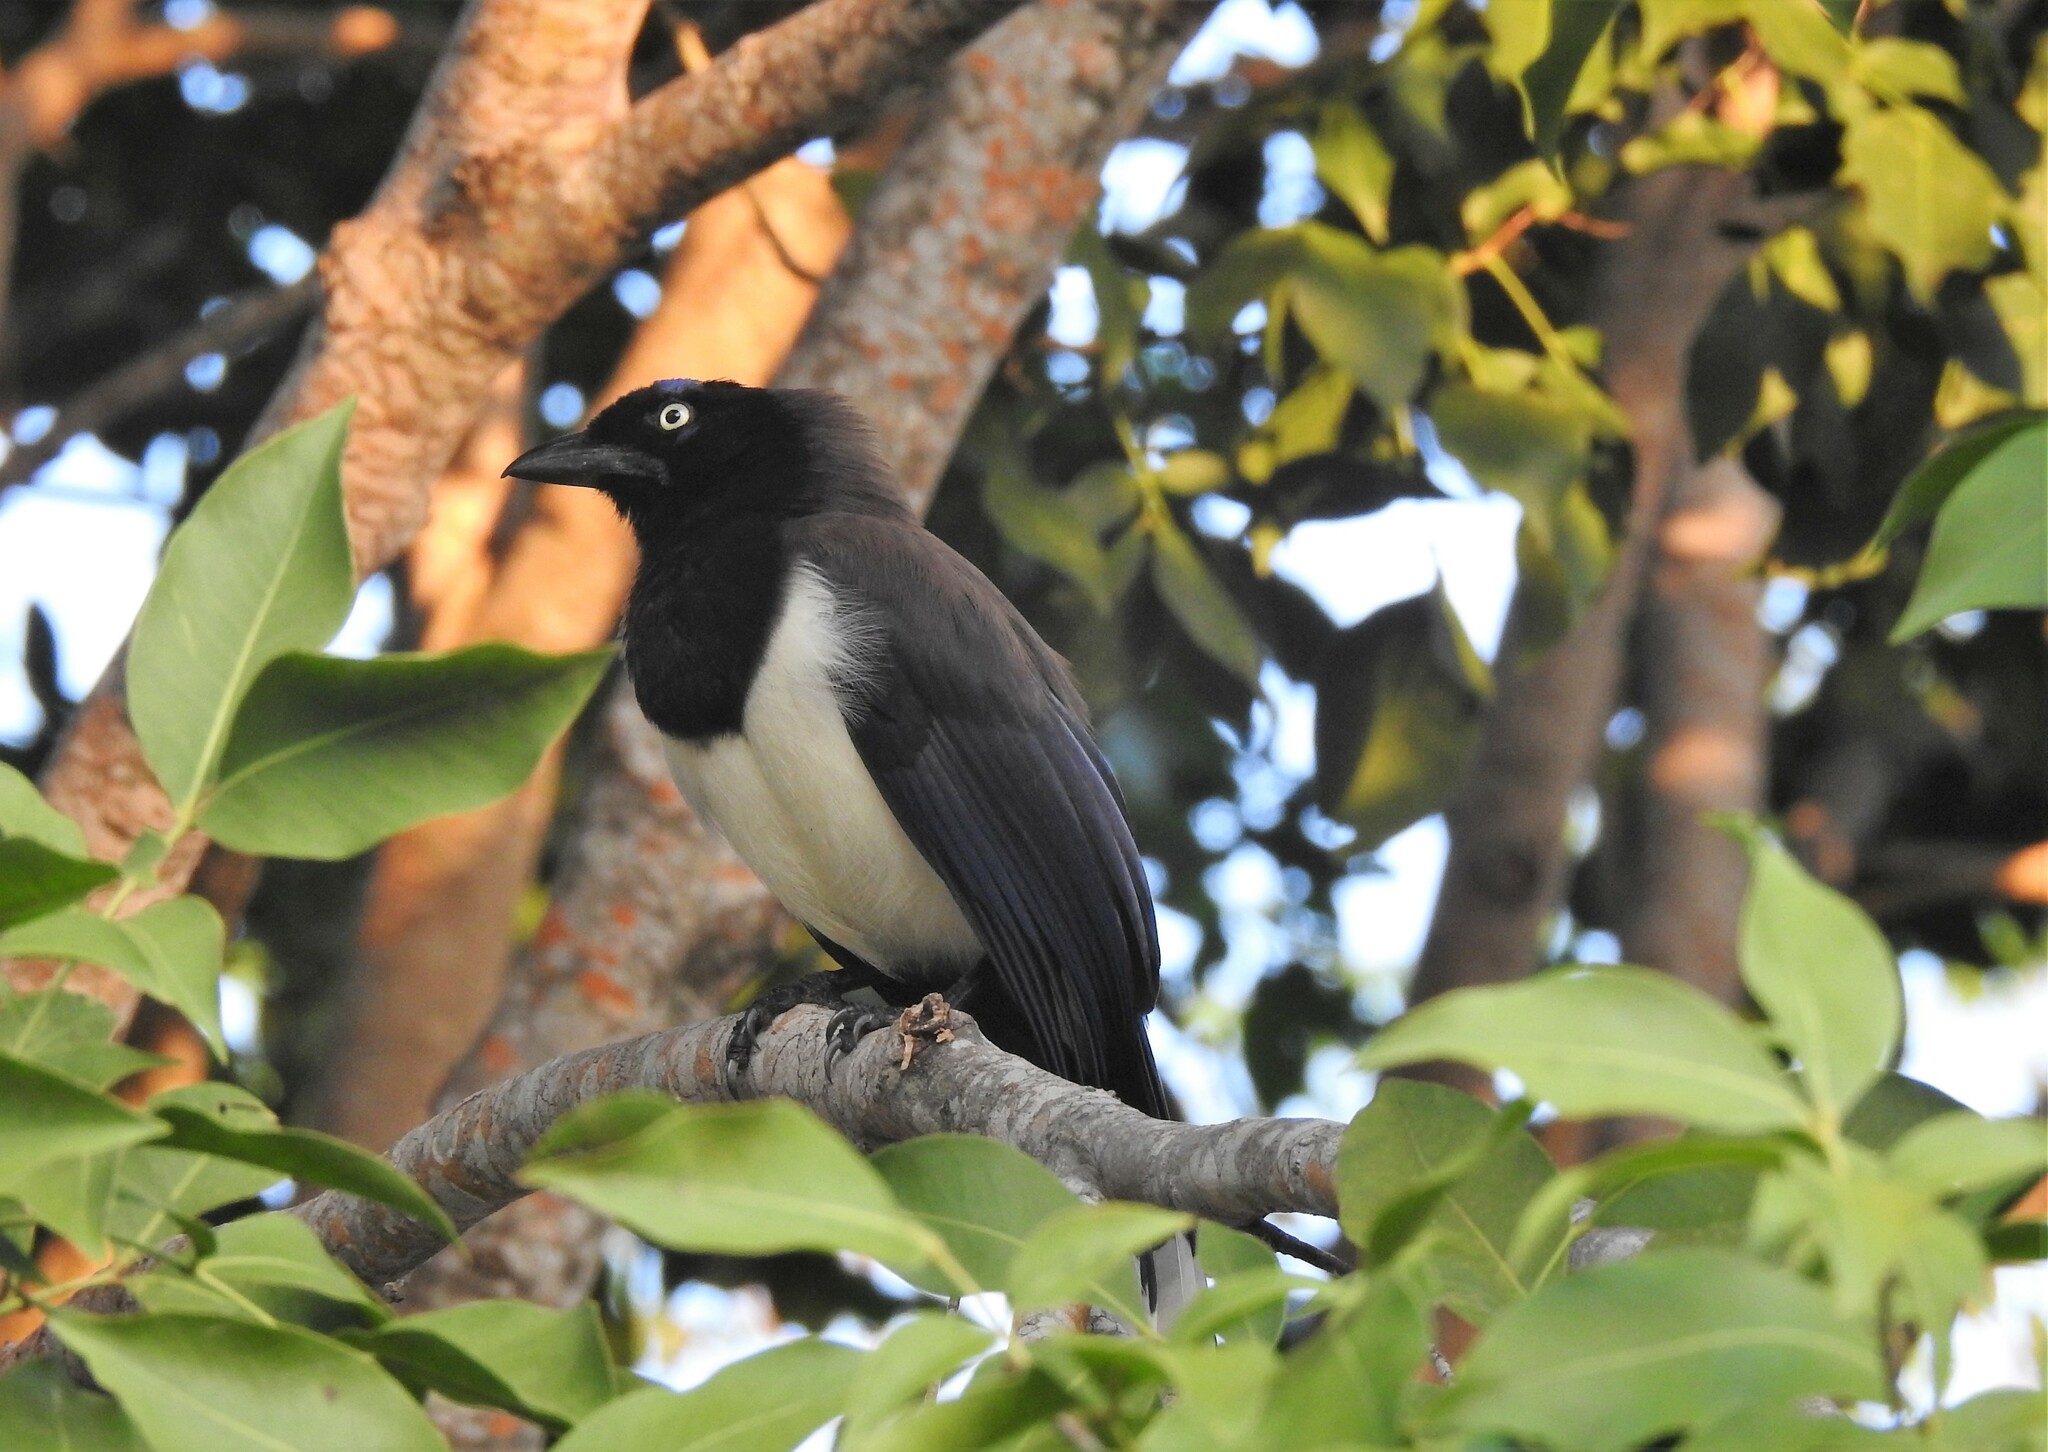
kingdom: Animalia
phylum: Chordata
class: Aves
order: Passeriformes
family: Corvidae
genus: Cyanocorax
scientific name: Cyanocorax affinis
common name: Black-chested jay
